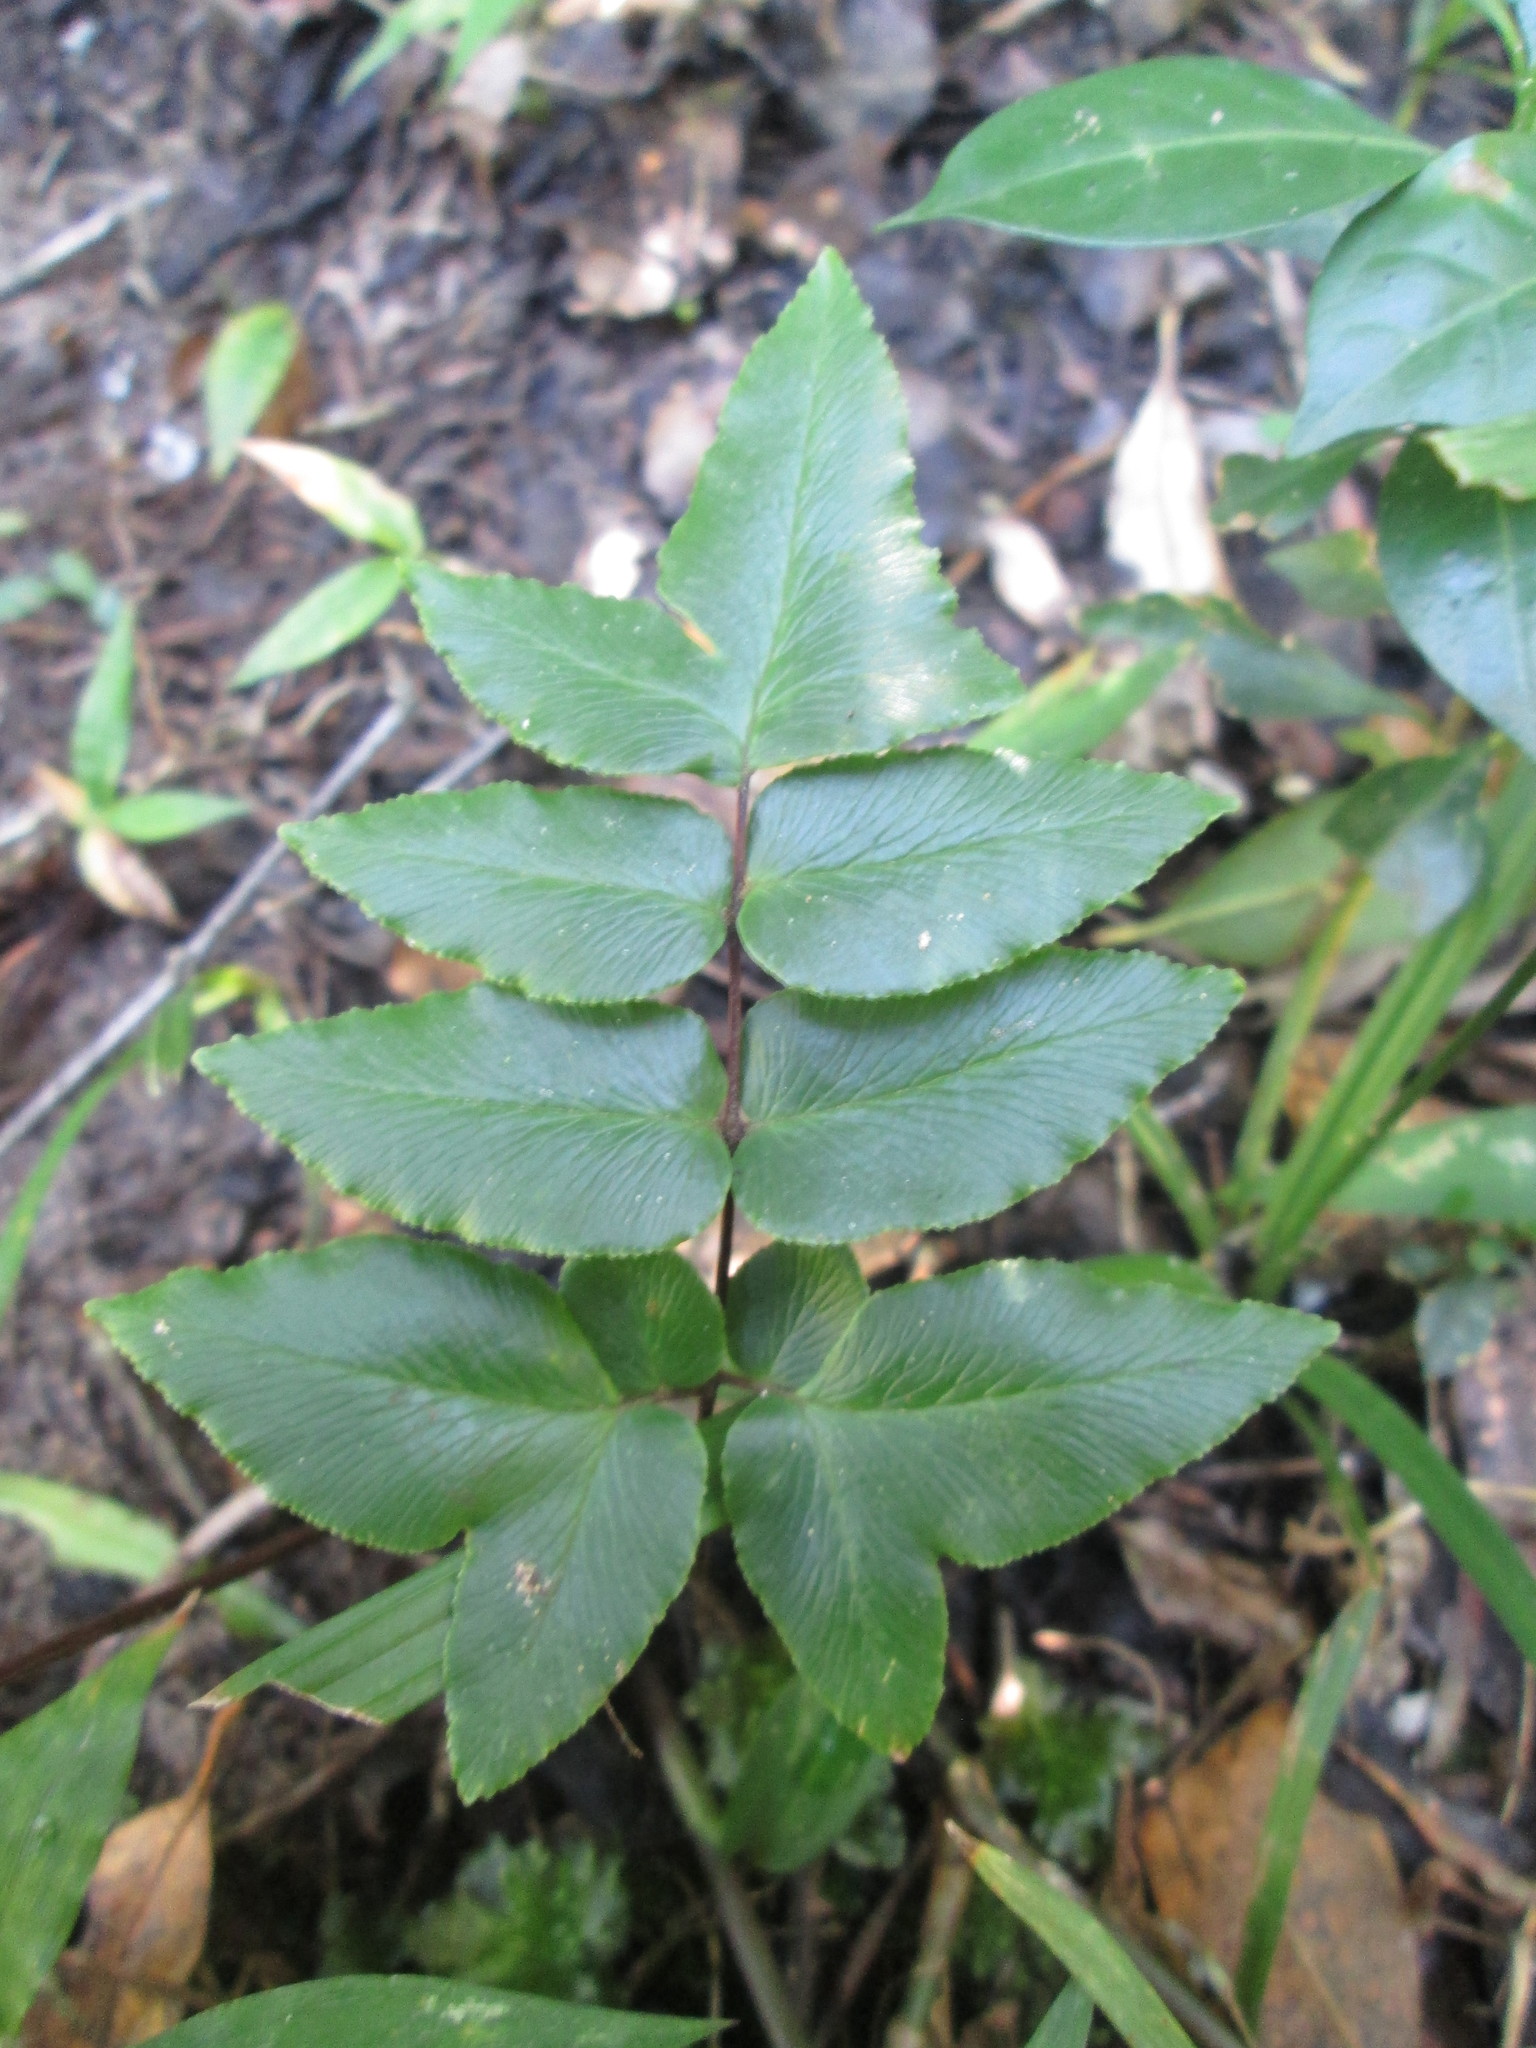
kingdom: Plantae
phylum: Tracheophyta
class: Polypodiopsida
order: Polypodiales
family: Pteridaceae
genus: Cheilanthes
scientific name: Cheilanthes viridis
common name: Green cliffbrake
